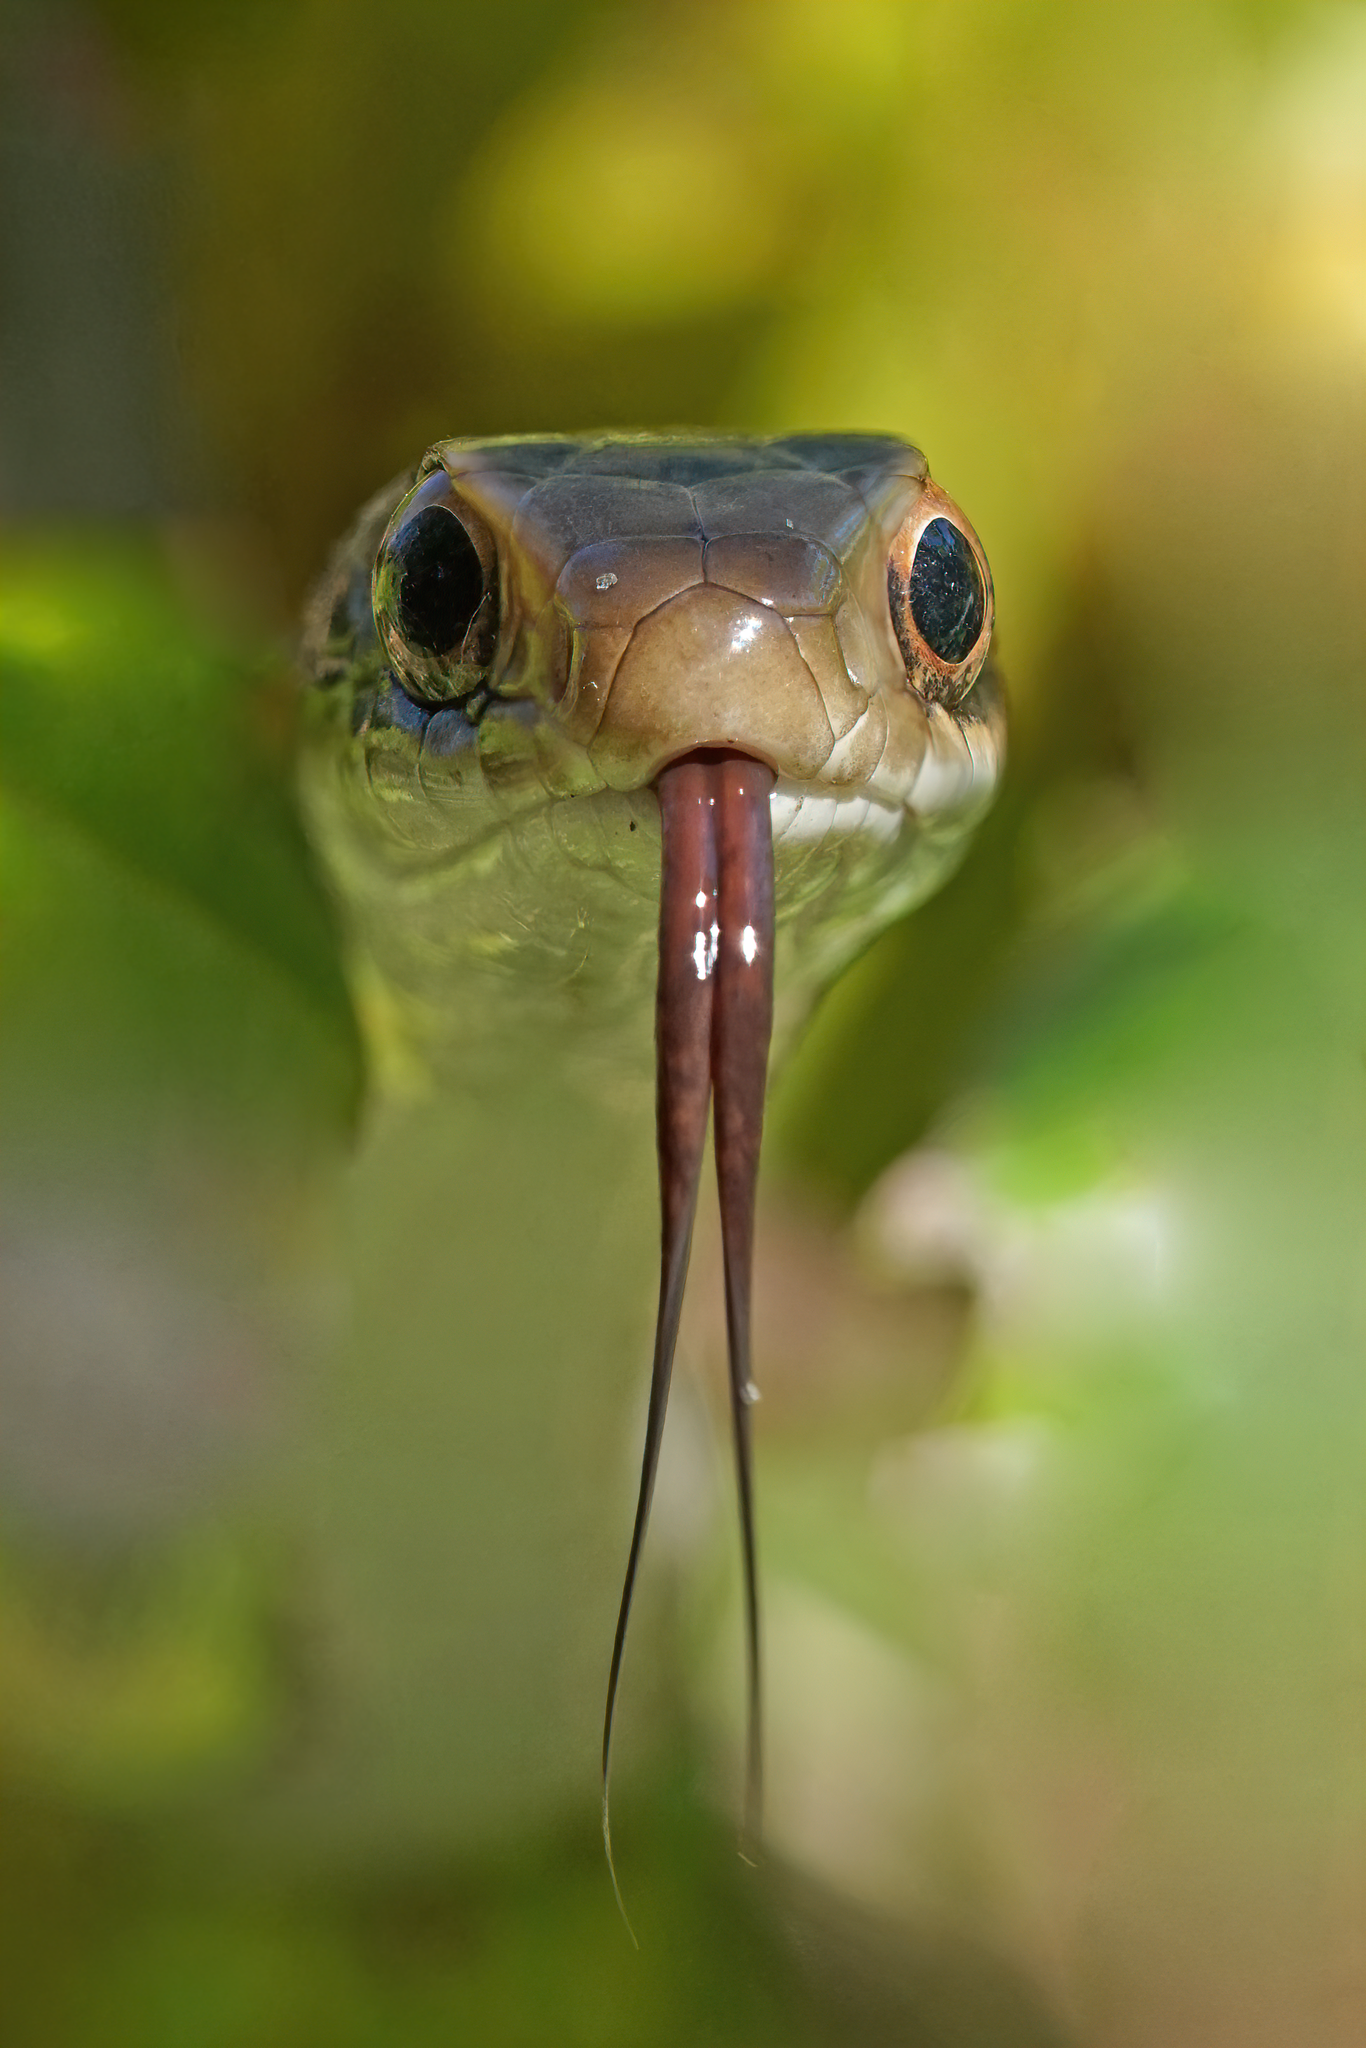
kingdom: Animalia
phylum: Chordata
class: Squamata
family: Colubridae
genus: Coluber
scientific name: Coluber constrictor
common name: Eastern racer
